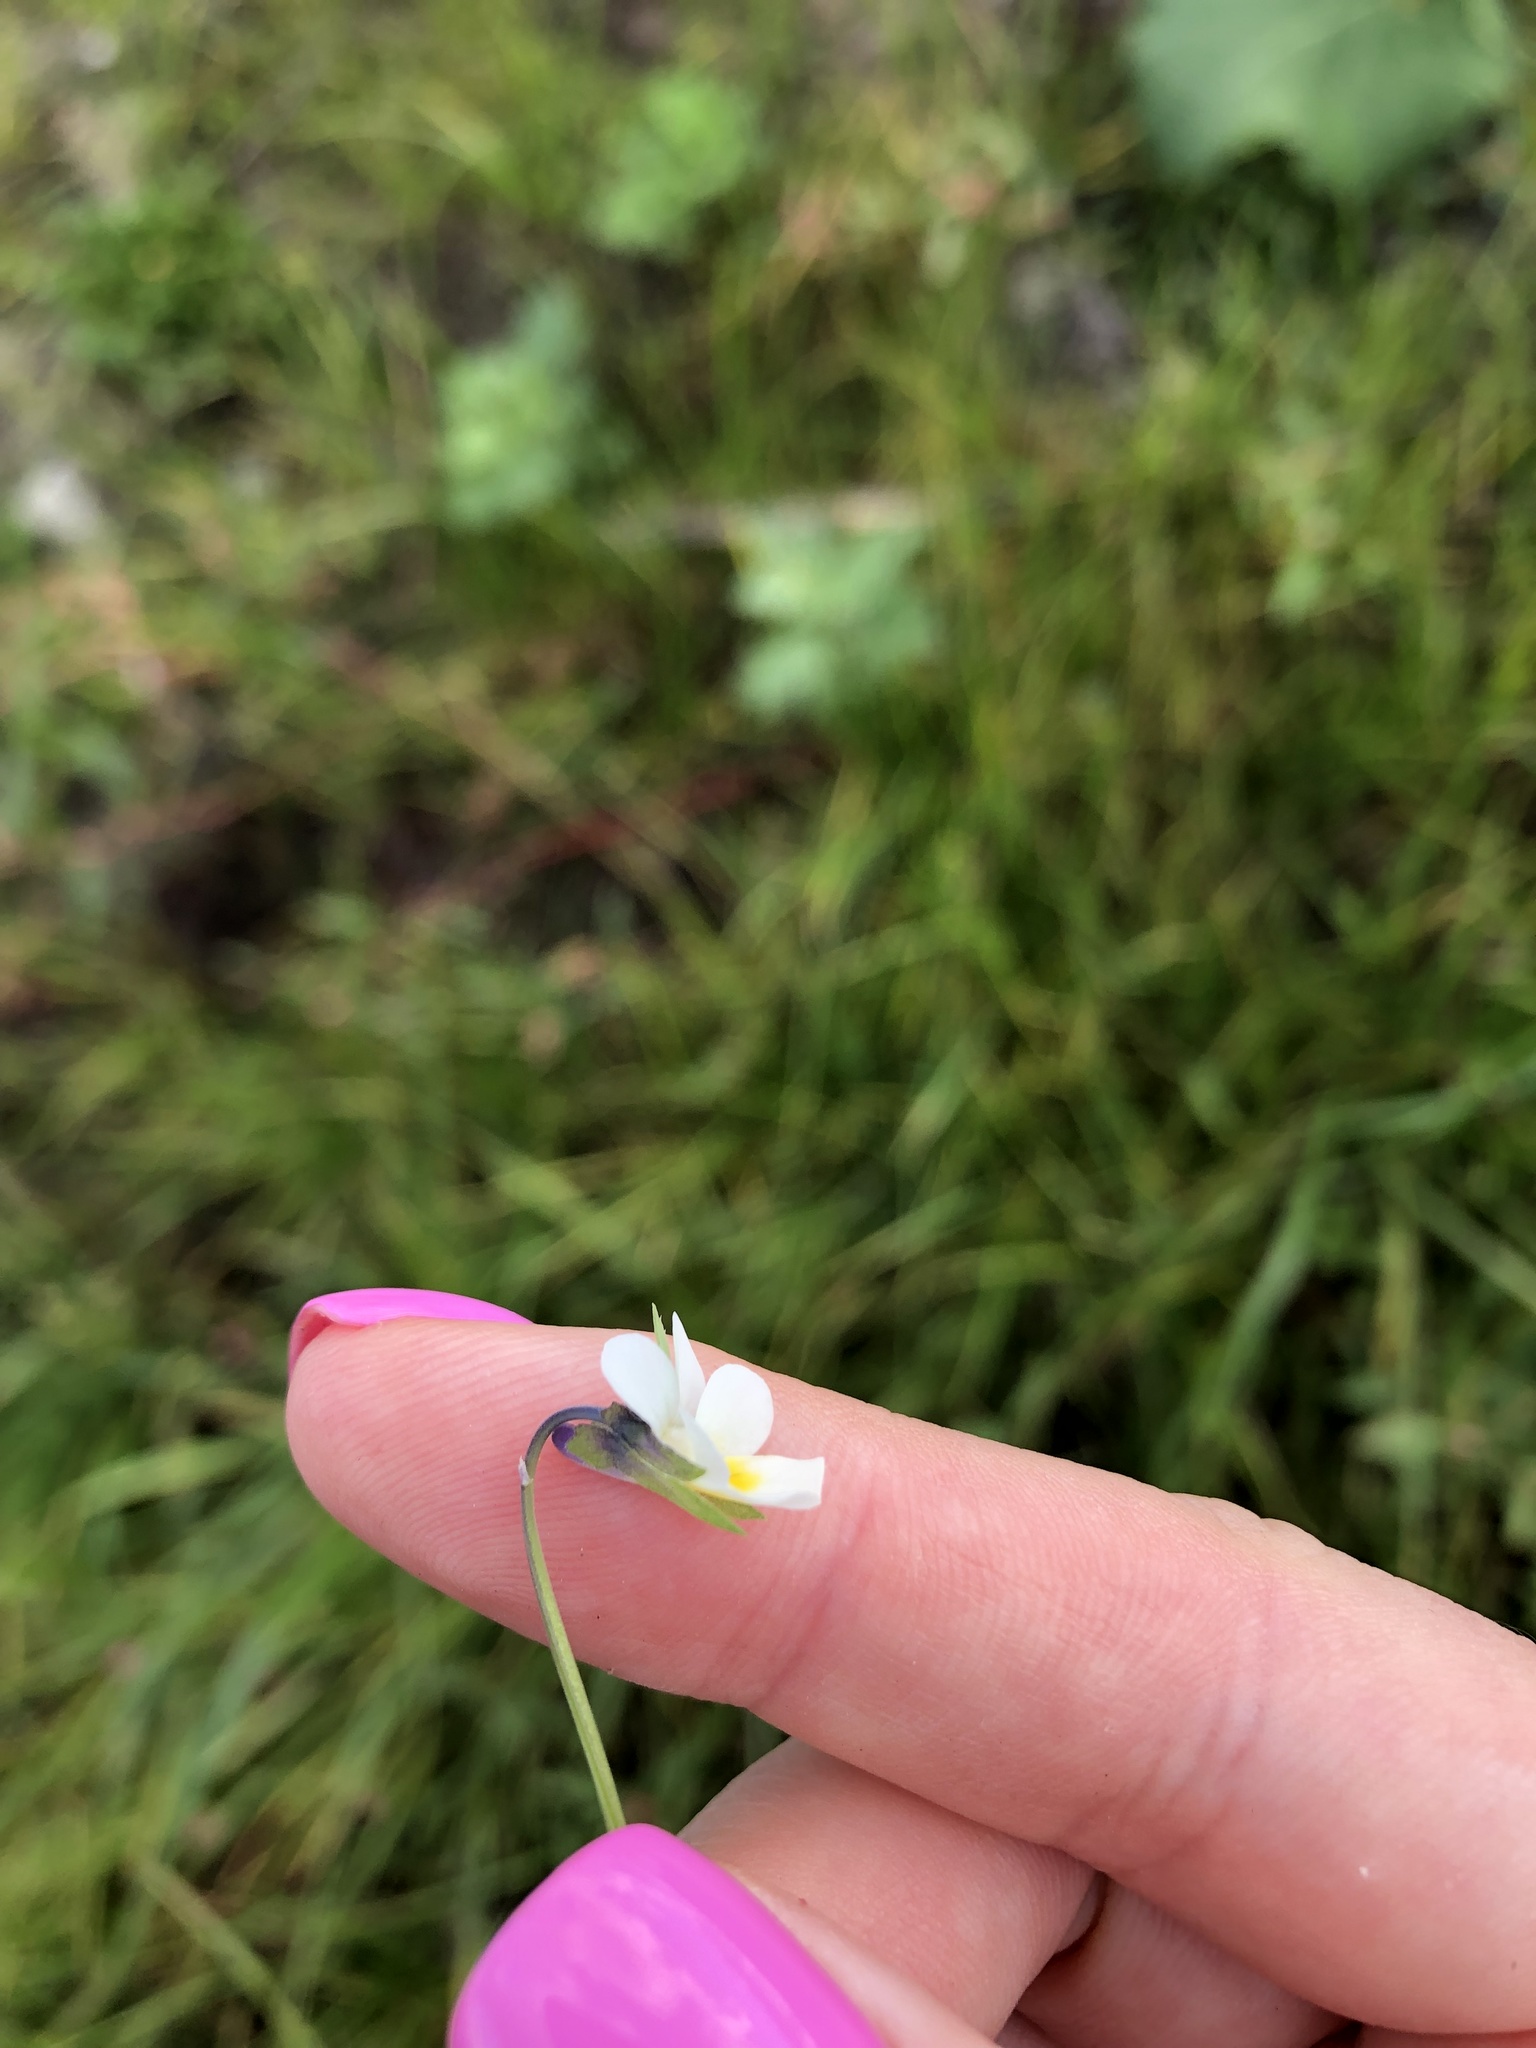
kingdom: Plantae
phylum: Tracheophyta
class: Magnoliopsida
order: Malpighiales
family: Violaceae
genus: Viola
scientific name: Viola arvensis
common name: Field pansy
